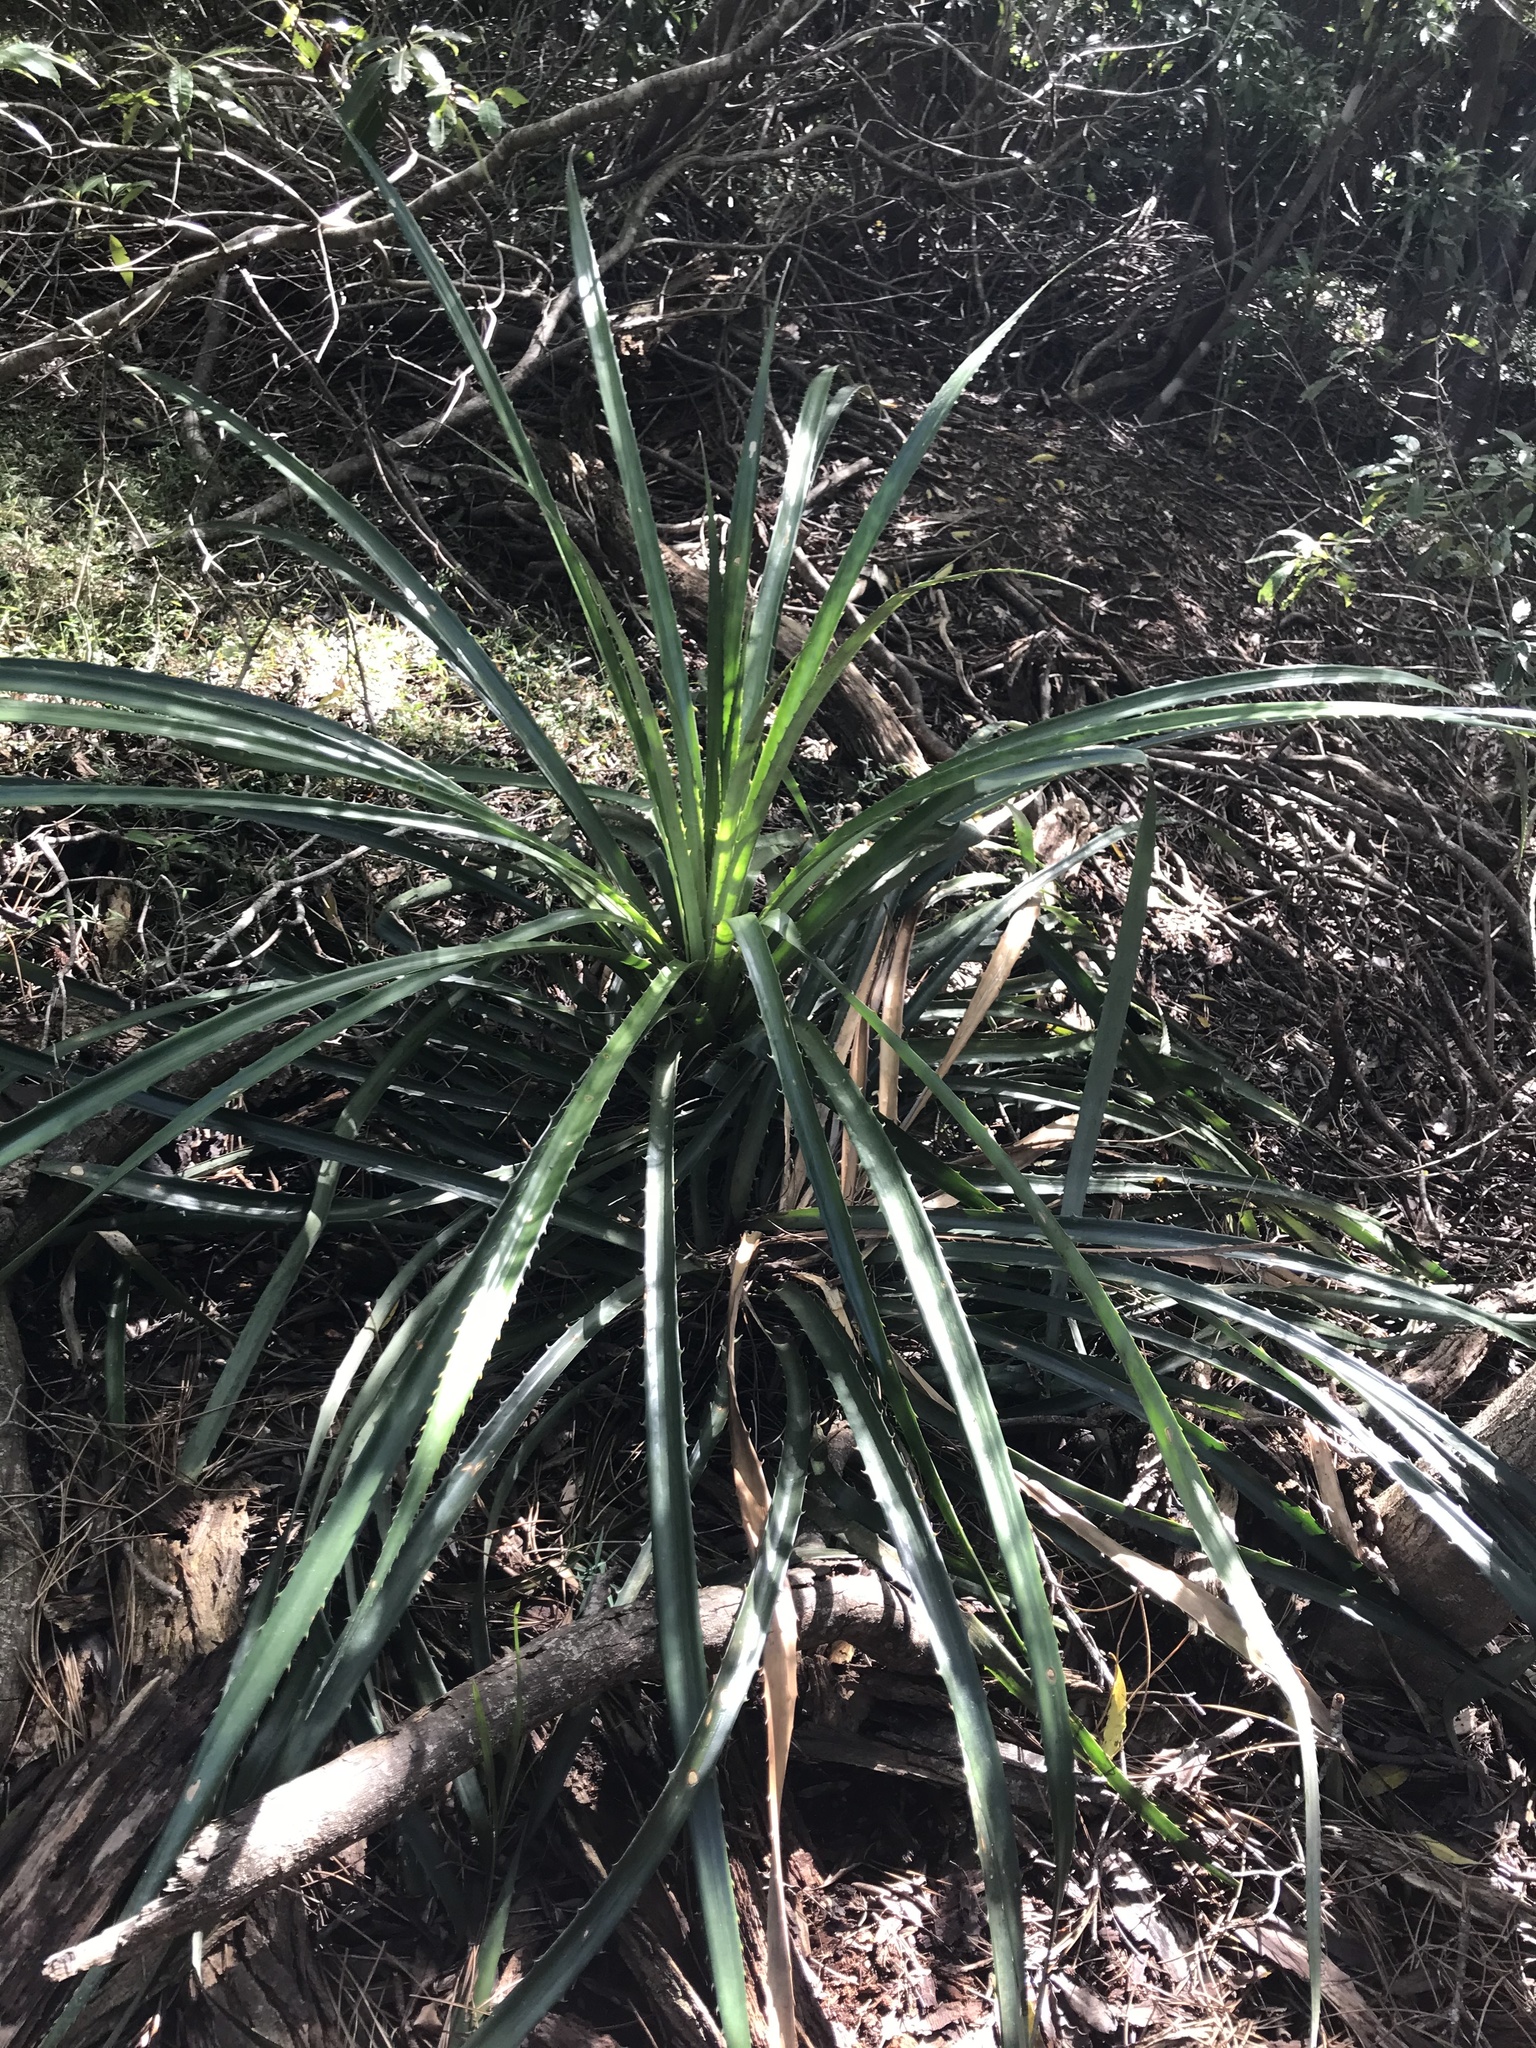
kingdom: Plantae
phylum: Tracheophyta
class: Liliopsida
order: Poales
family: Bromeliaceae
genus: Bromelia
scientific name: Bromelia antiacantha
